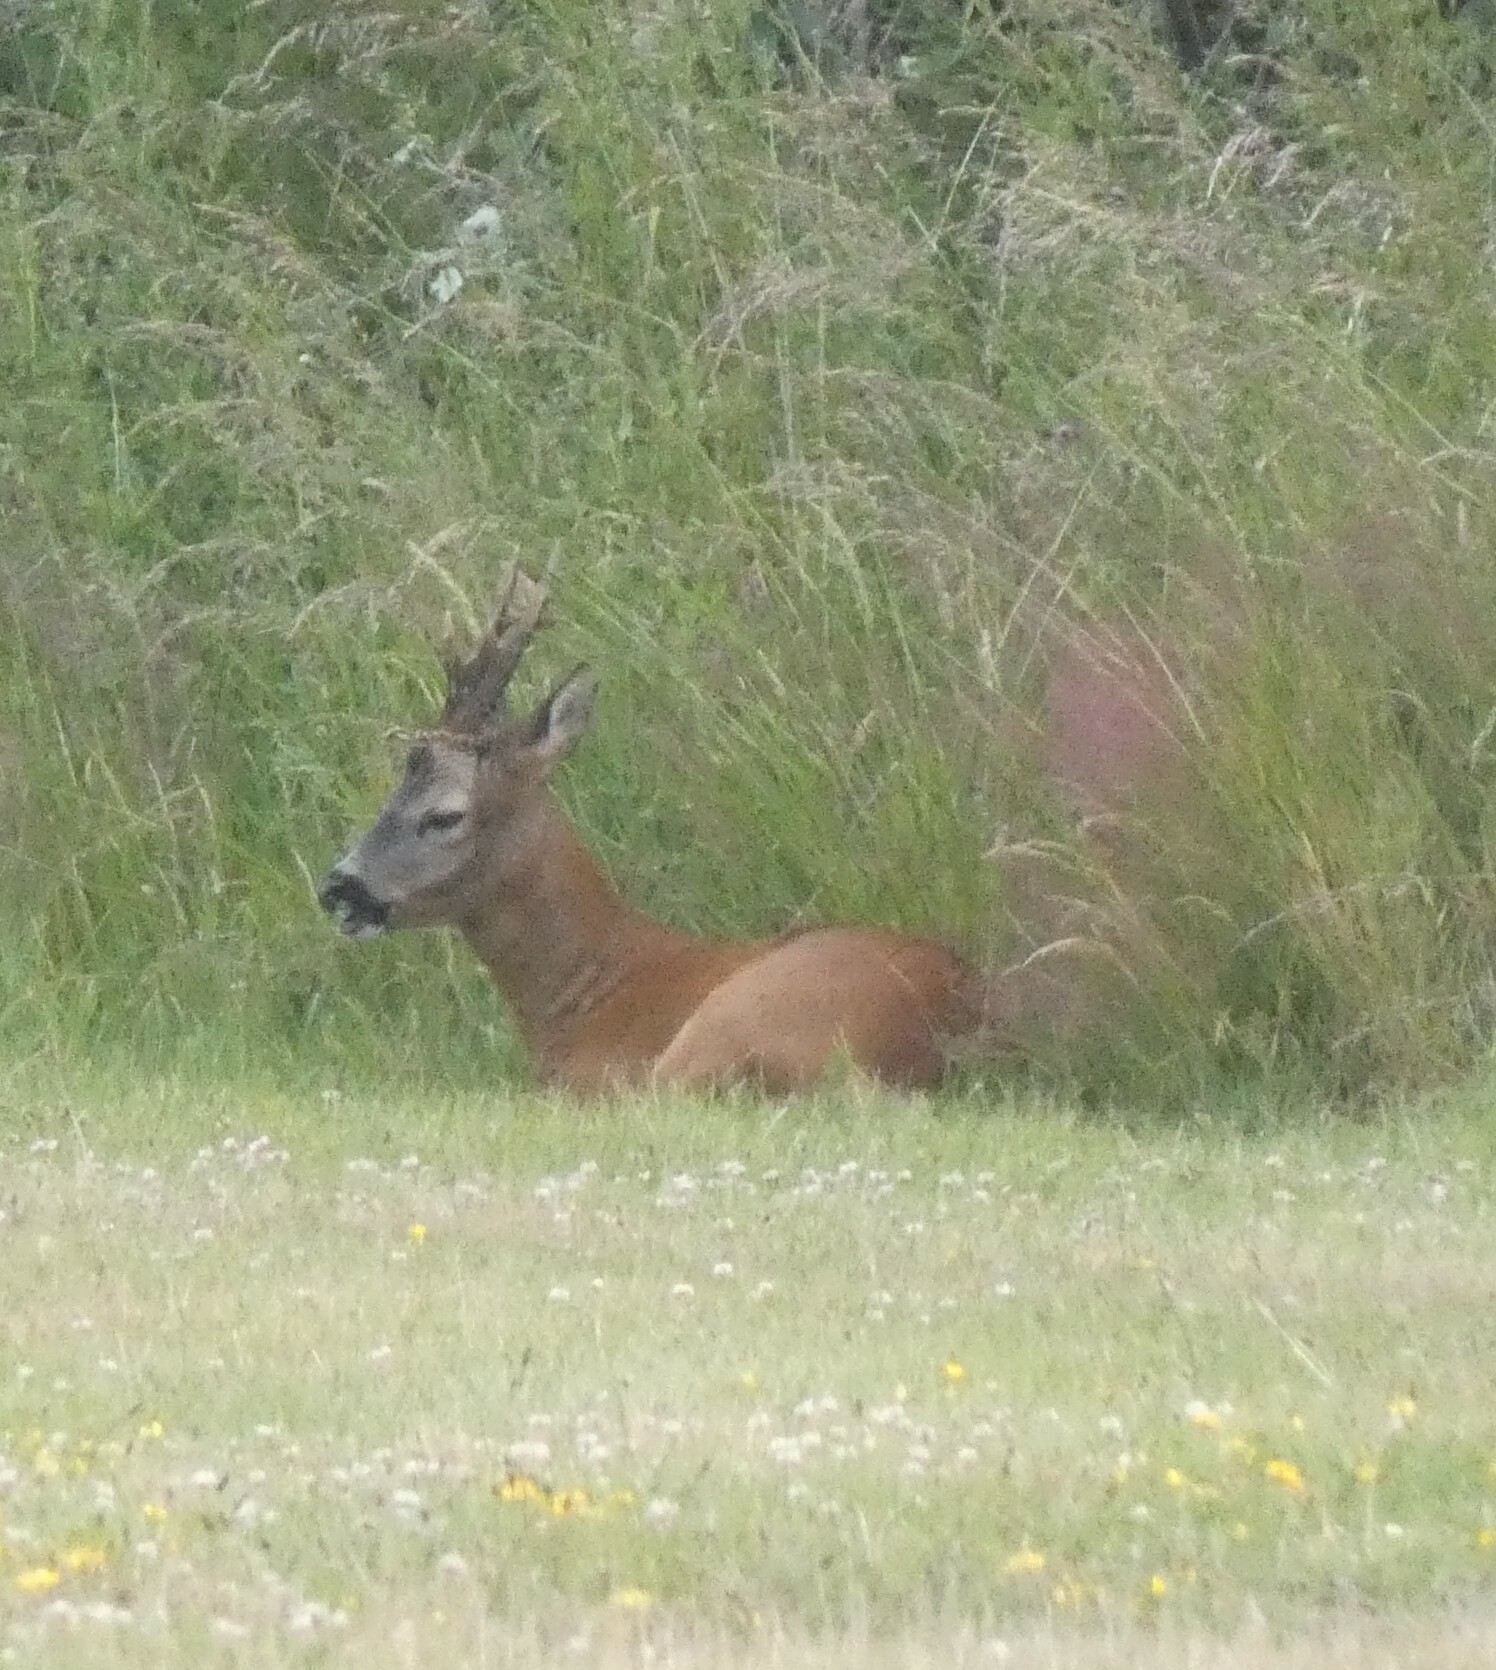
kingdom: Animalia
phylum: Chordata
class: Mammalia
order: Artiodactyla
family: Cervidae
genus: Capreolus
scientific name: Capreolus capreolus
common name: Western roe deer
